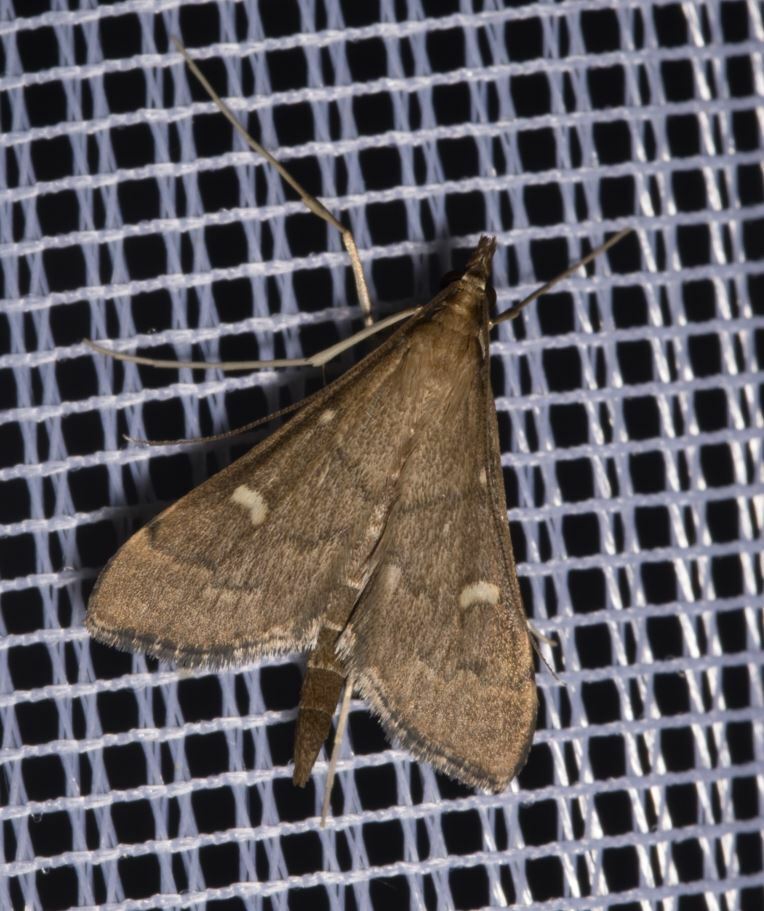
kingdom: Animalia
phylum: Arthropoda
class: Insecta
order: Lepidoptera
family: Crambidae
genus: Stenia
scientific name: Stenia Dolicharthria punctalis
